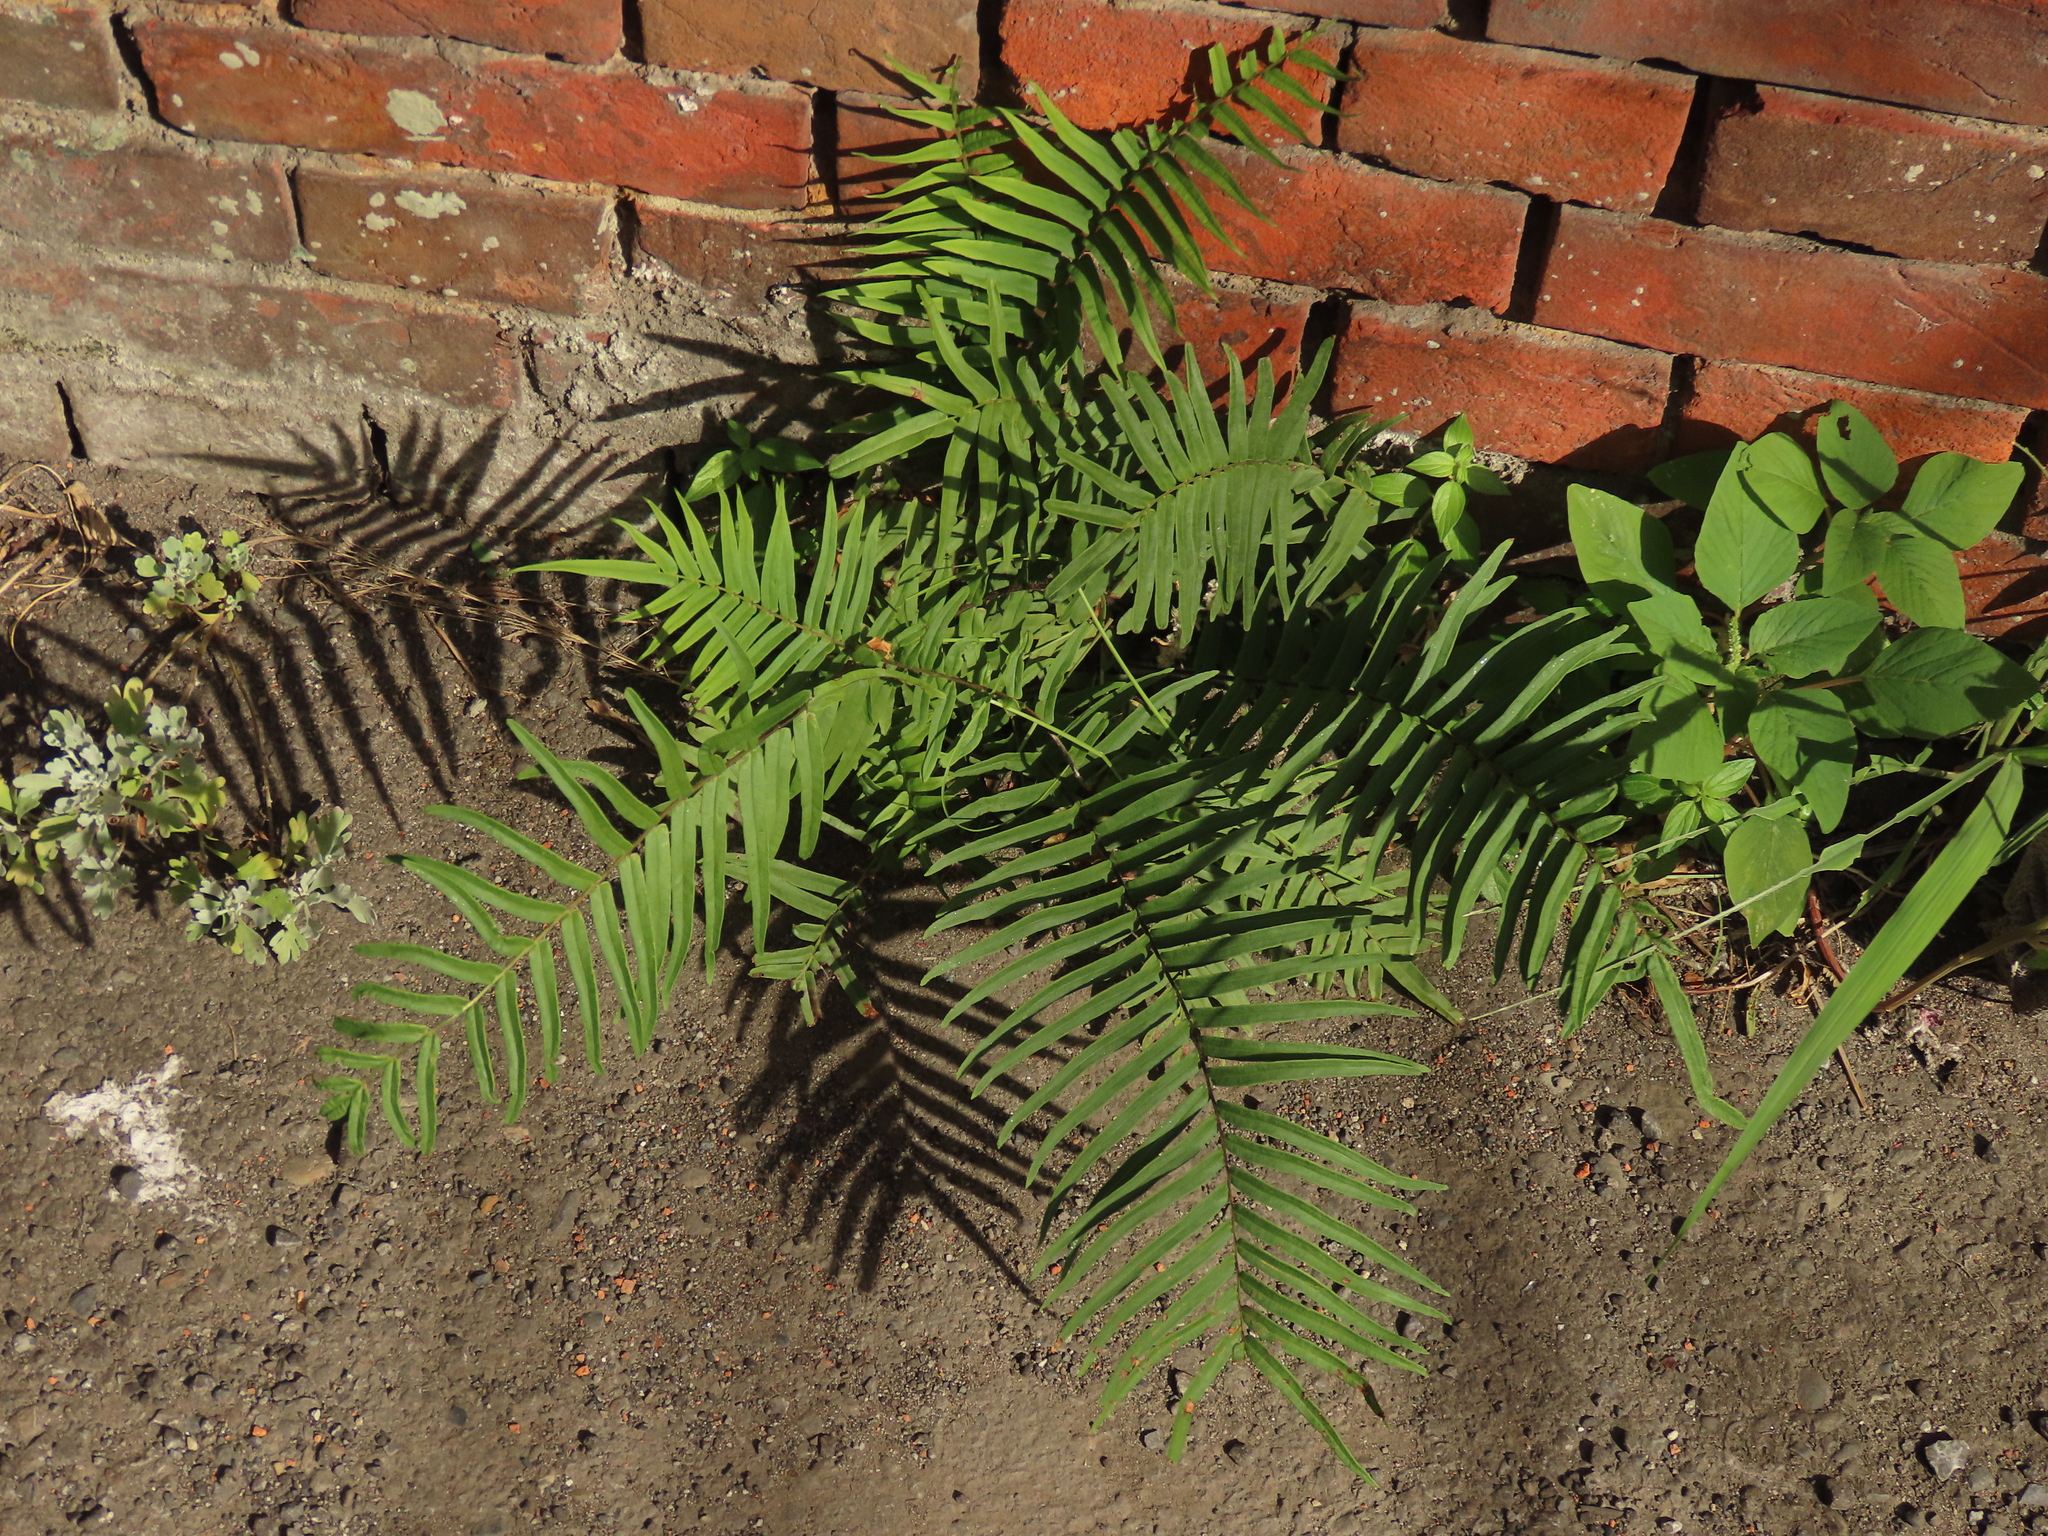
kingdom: Plantae
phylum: Tracheophyta
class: Polypodiopsida
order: Polypodiales
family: Pteridaceae
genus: Pteris
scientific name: Pteris vittata
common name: Ladder brake
